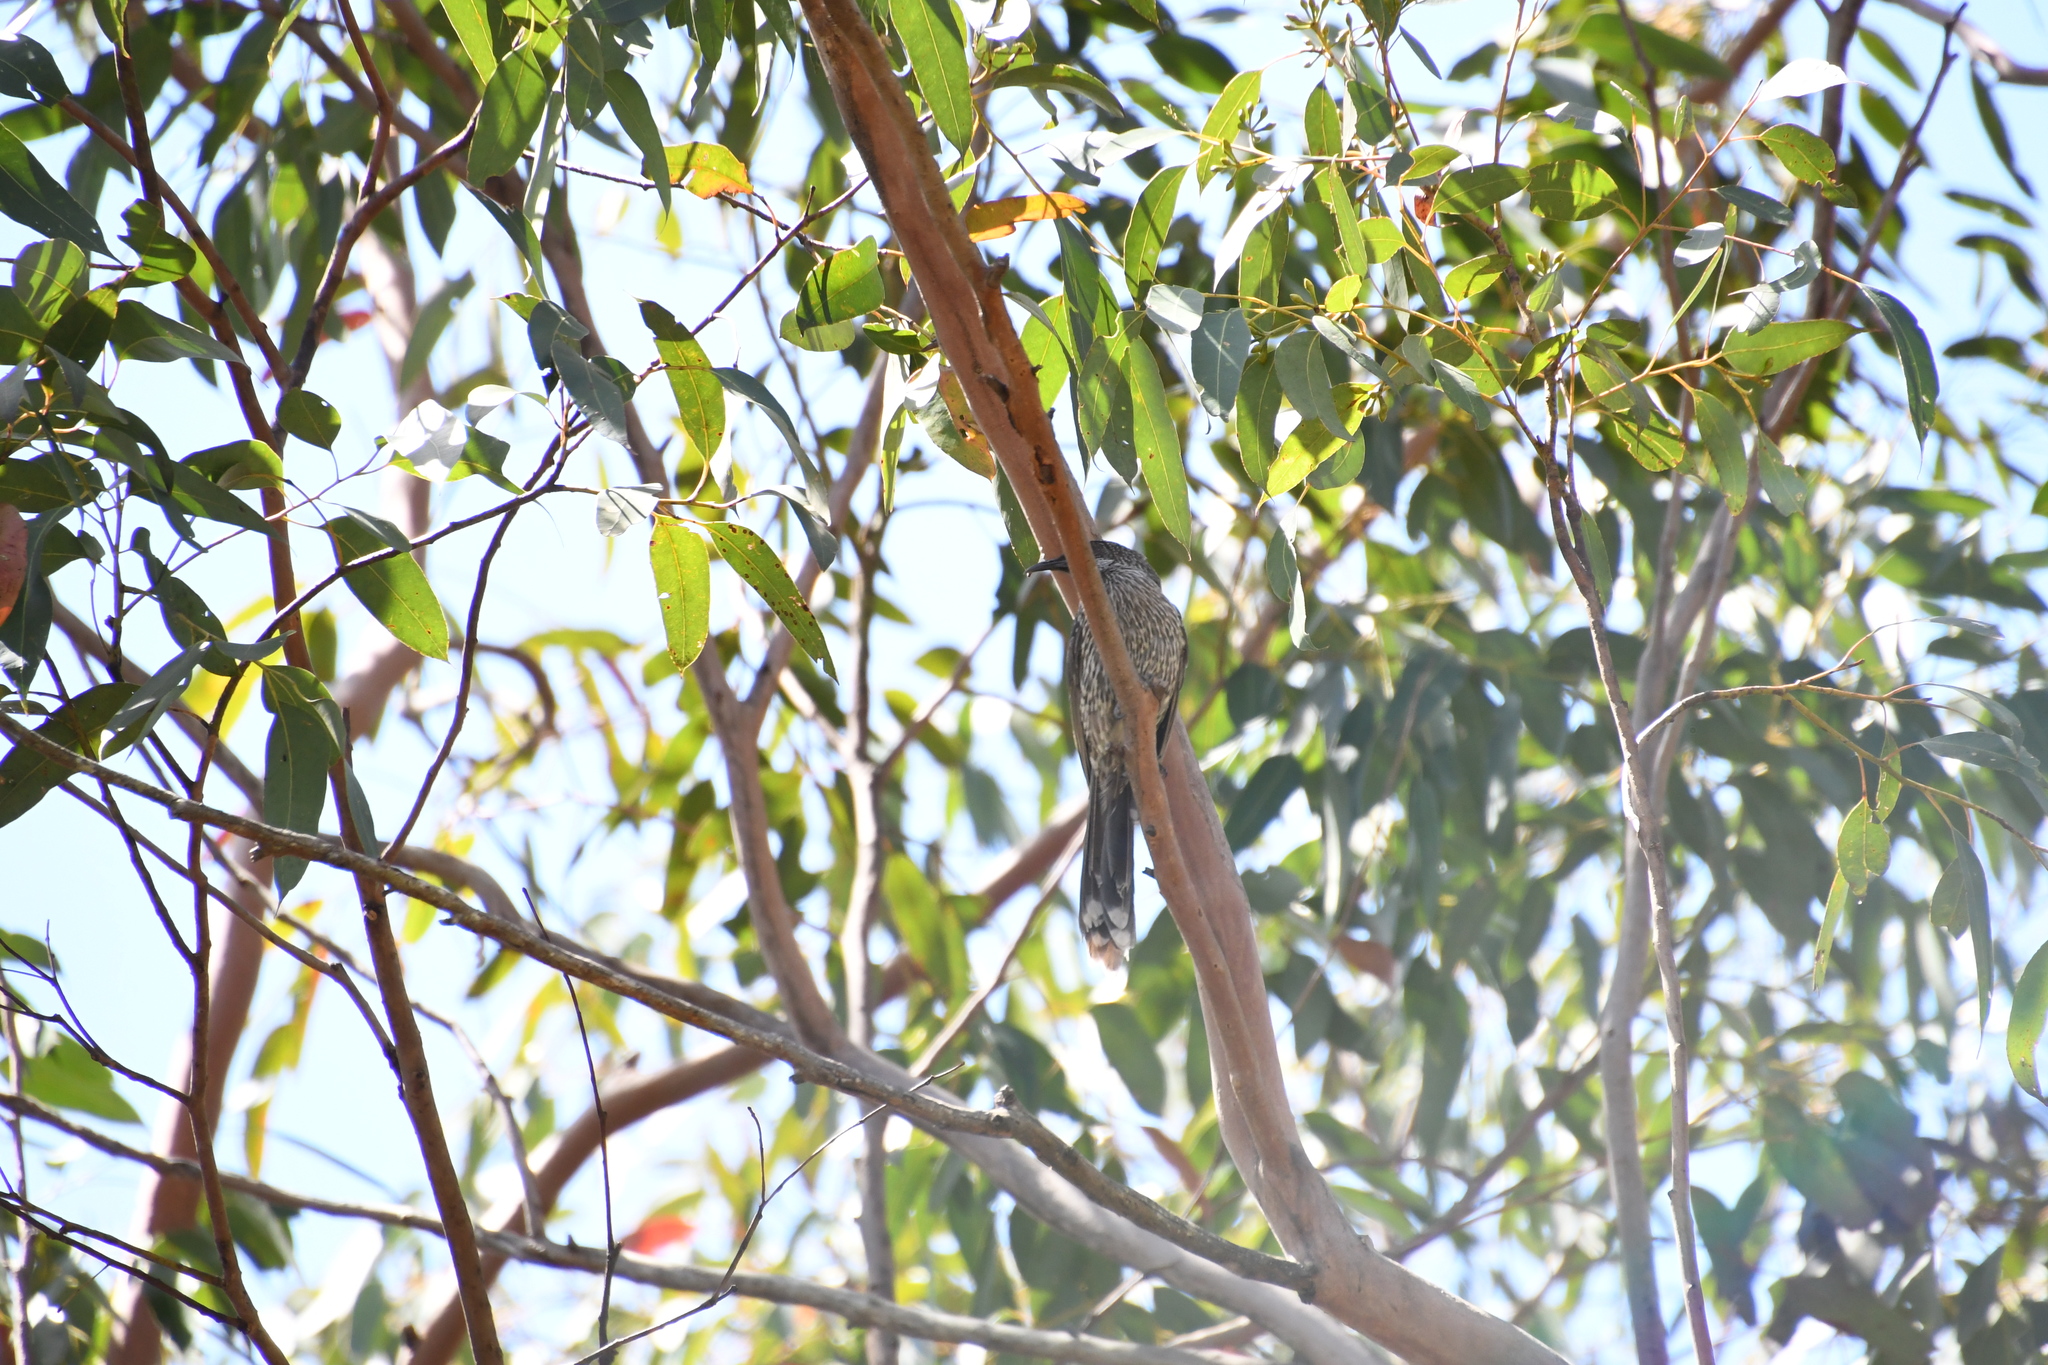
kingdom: Animalia
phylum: Chordata
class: Aves
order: Passeriformes
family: Meliphagidae
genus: Anthochaera
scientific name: Anthochaera chrysoptera
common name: Little wattlebird
